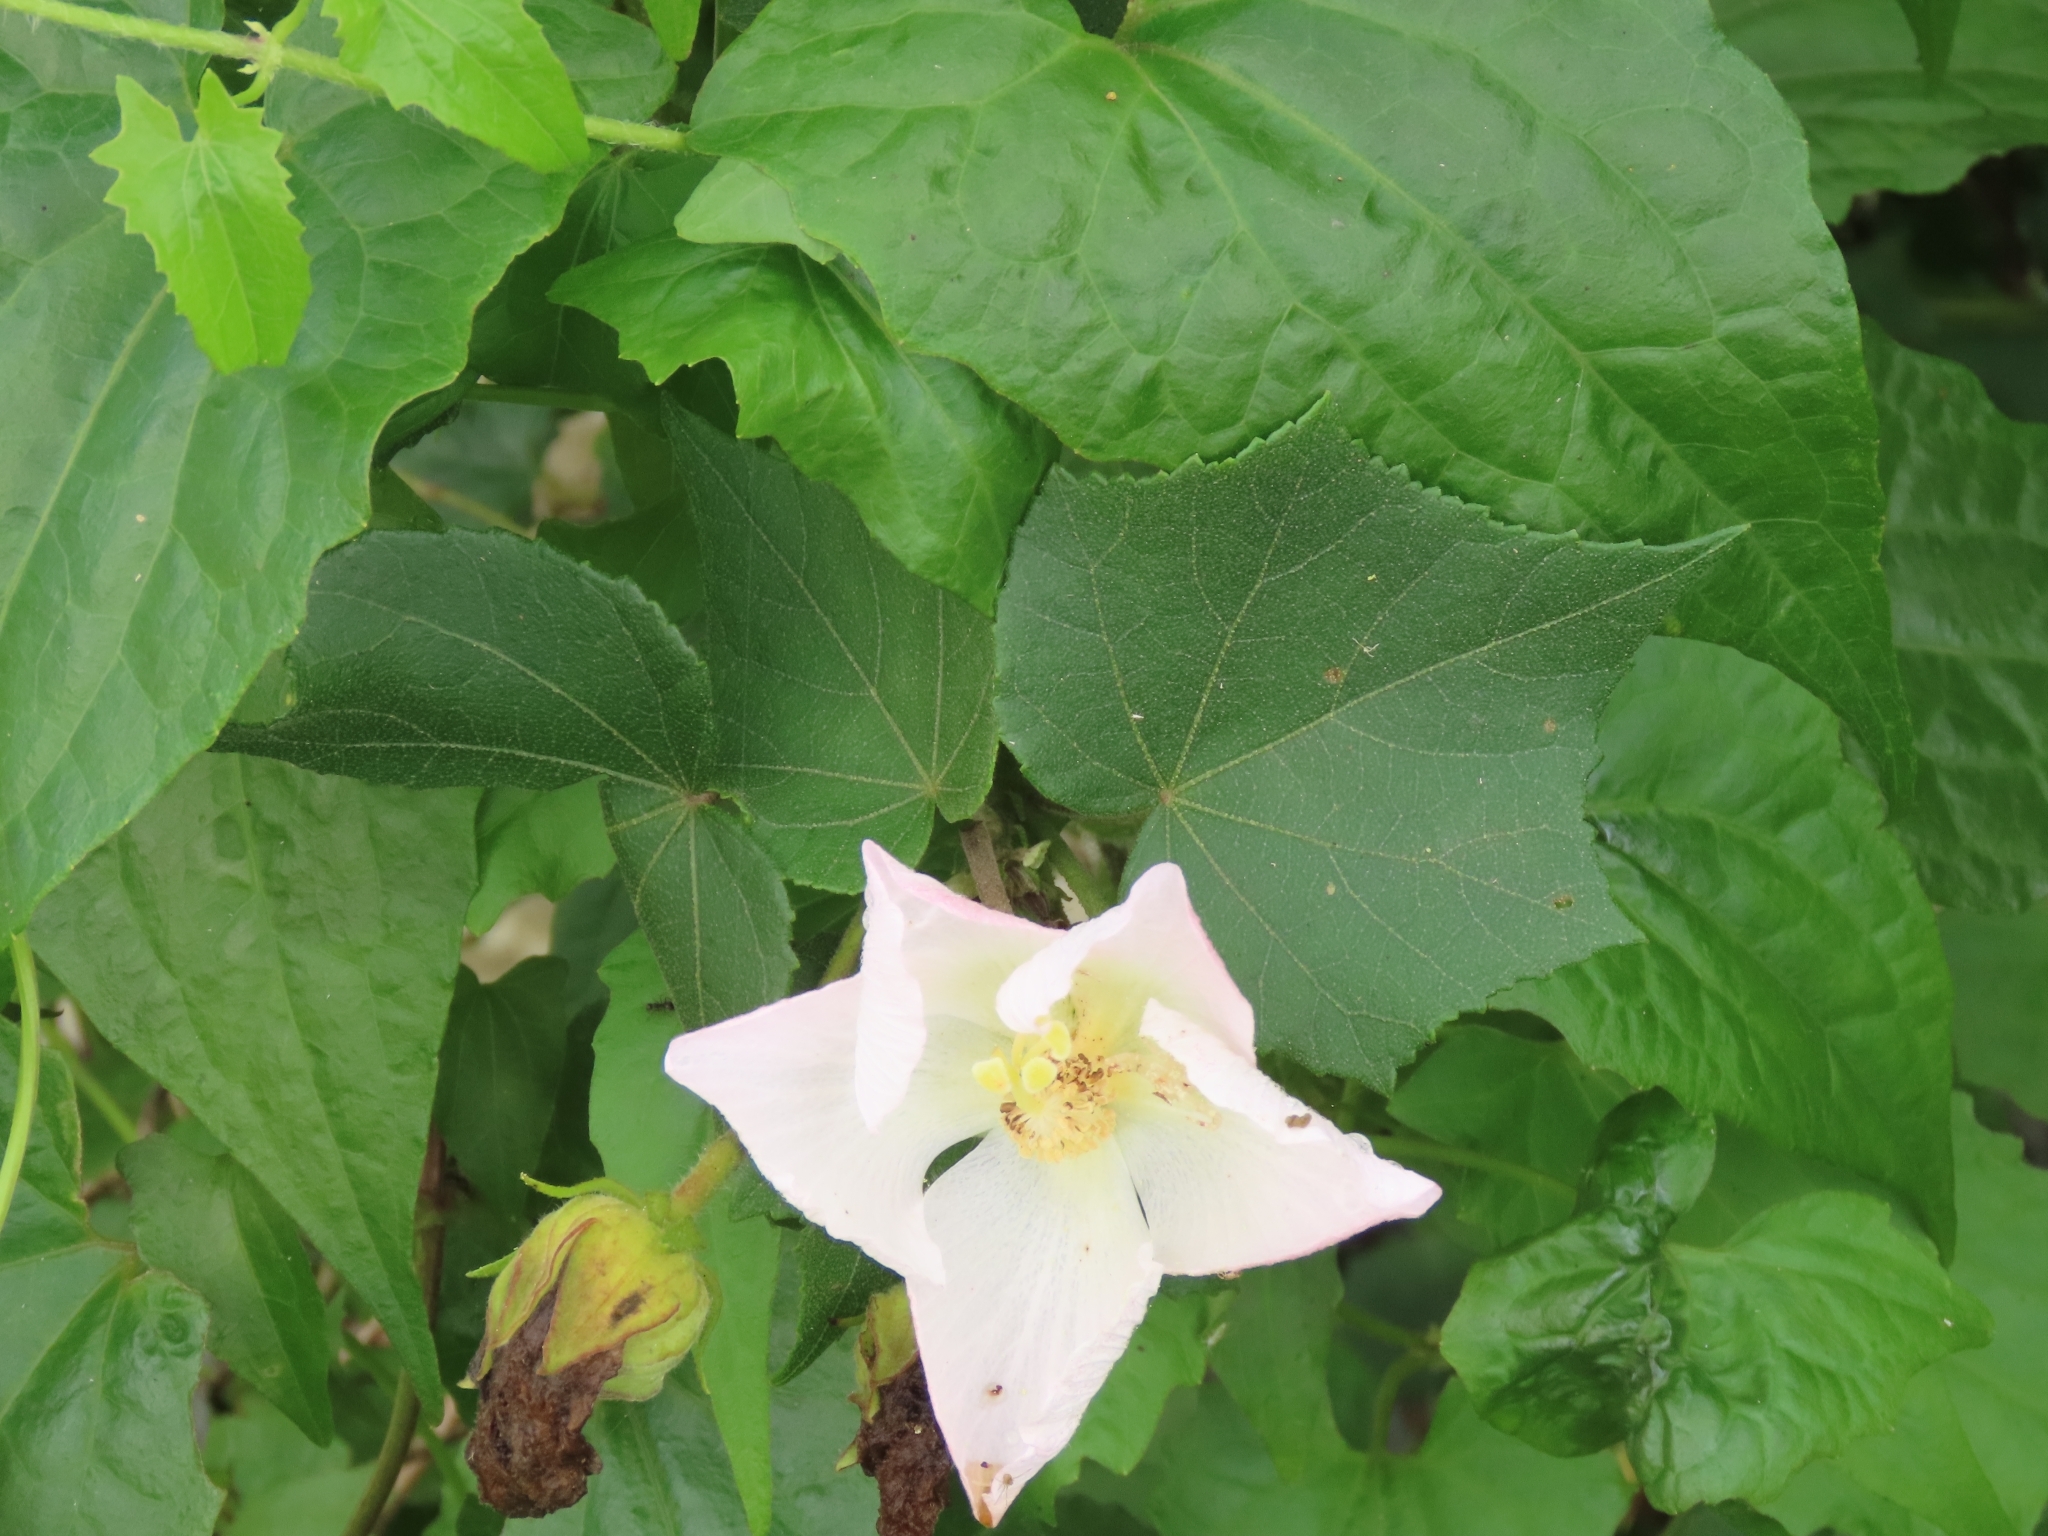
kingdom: Plantae
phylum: Tracheophyta
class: Magnoliopsida
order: Malvales
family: Malvaceae
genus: Hibiscus
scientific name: Hibiscus taiwanensis
